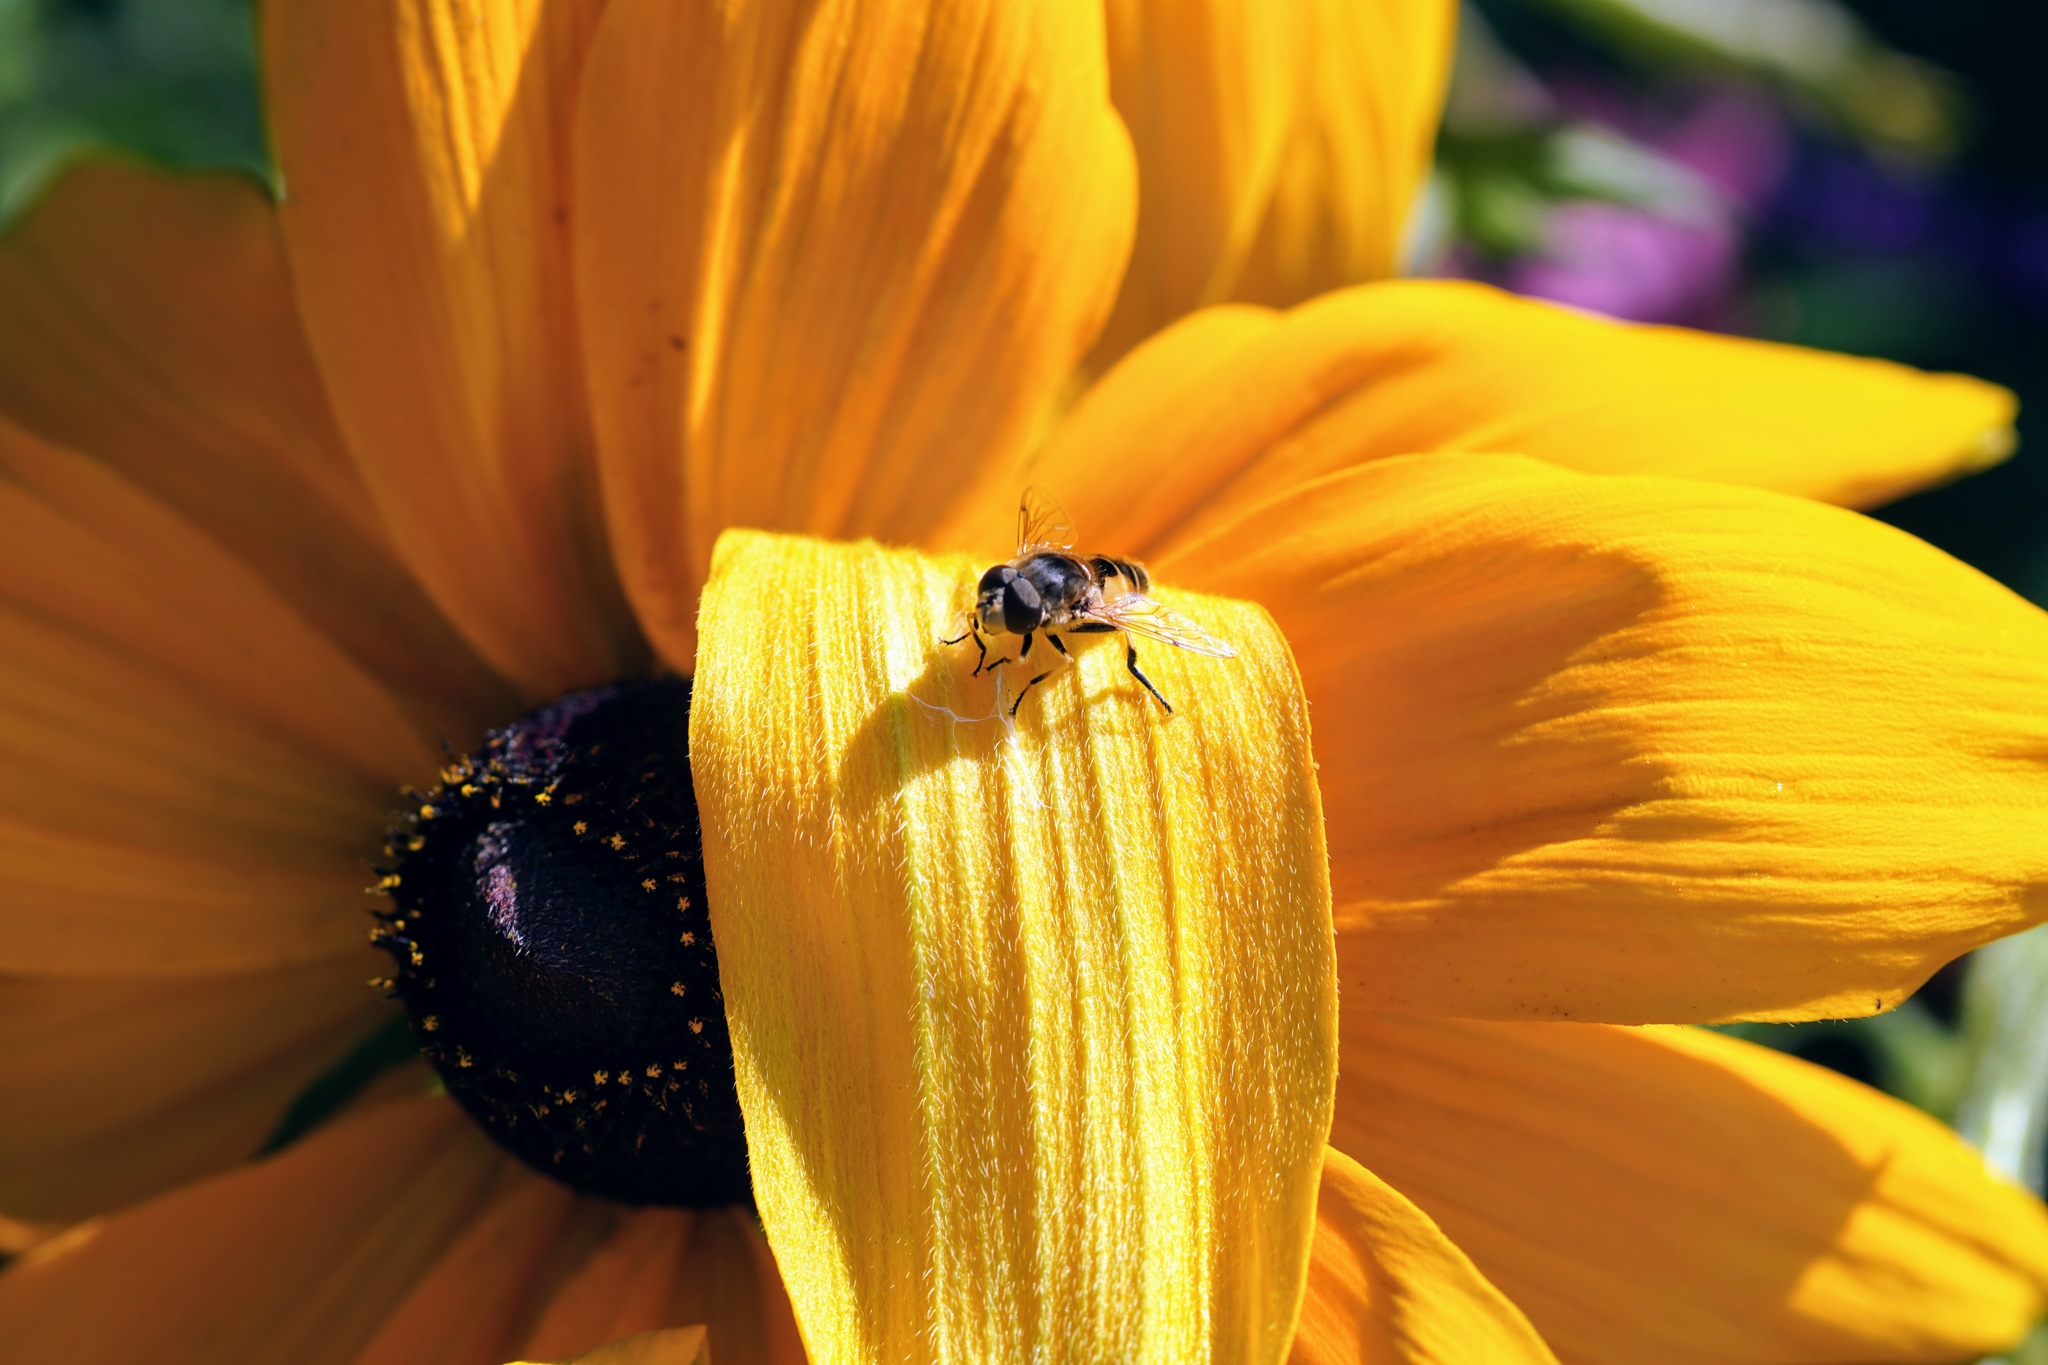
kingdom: Animalia
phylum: Arthropoda
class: Insecta
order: Diptera
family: Syrphidae
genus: Eristalis
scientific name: Eristalis arbustorum
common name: Hover fly
